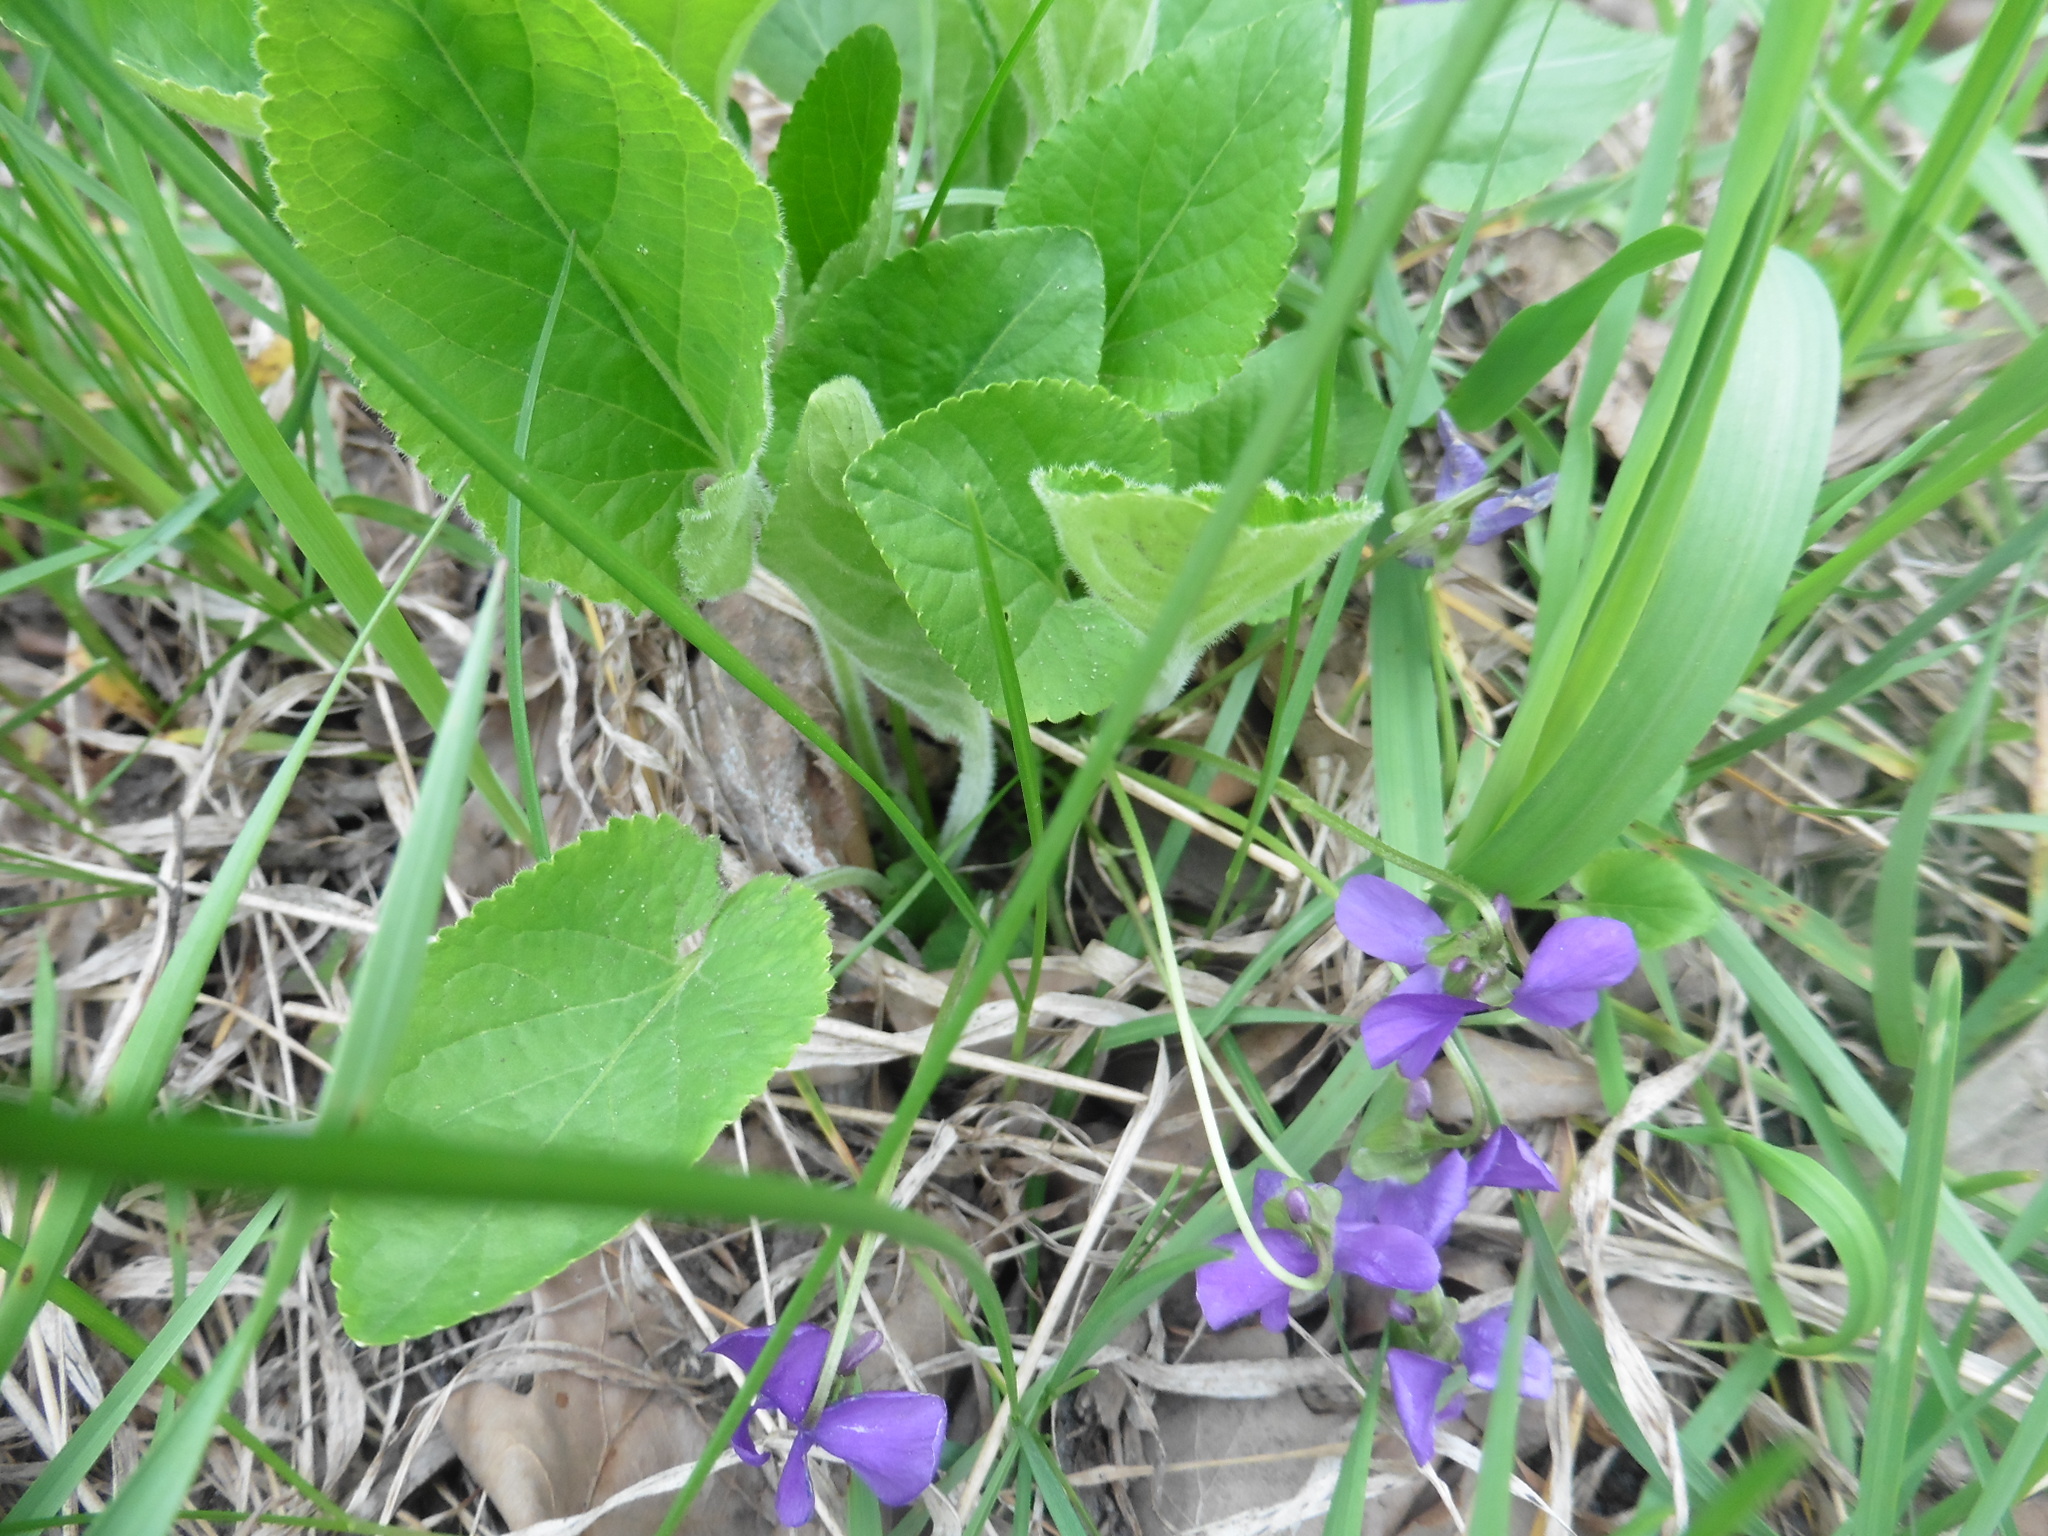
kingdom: Plantae
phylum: Tracheophyta
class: Magnoliopsida
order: Malpighiales
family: Violaceae
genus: Viola
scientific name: Viola hirta
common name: Hairy violet
